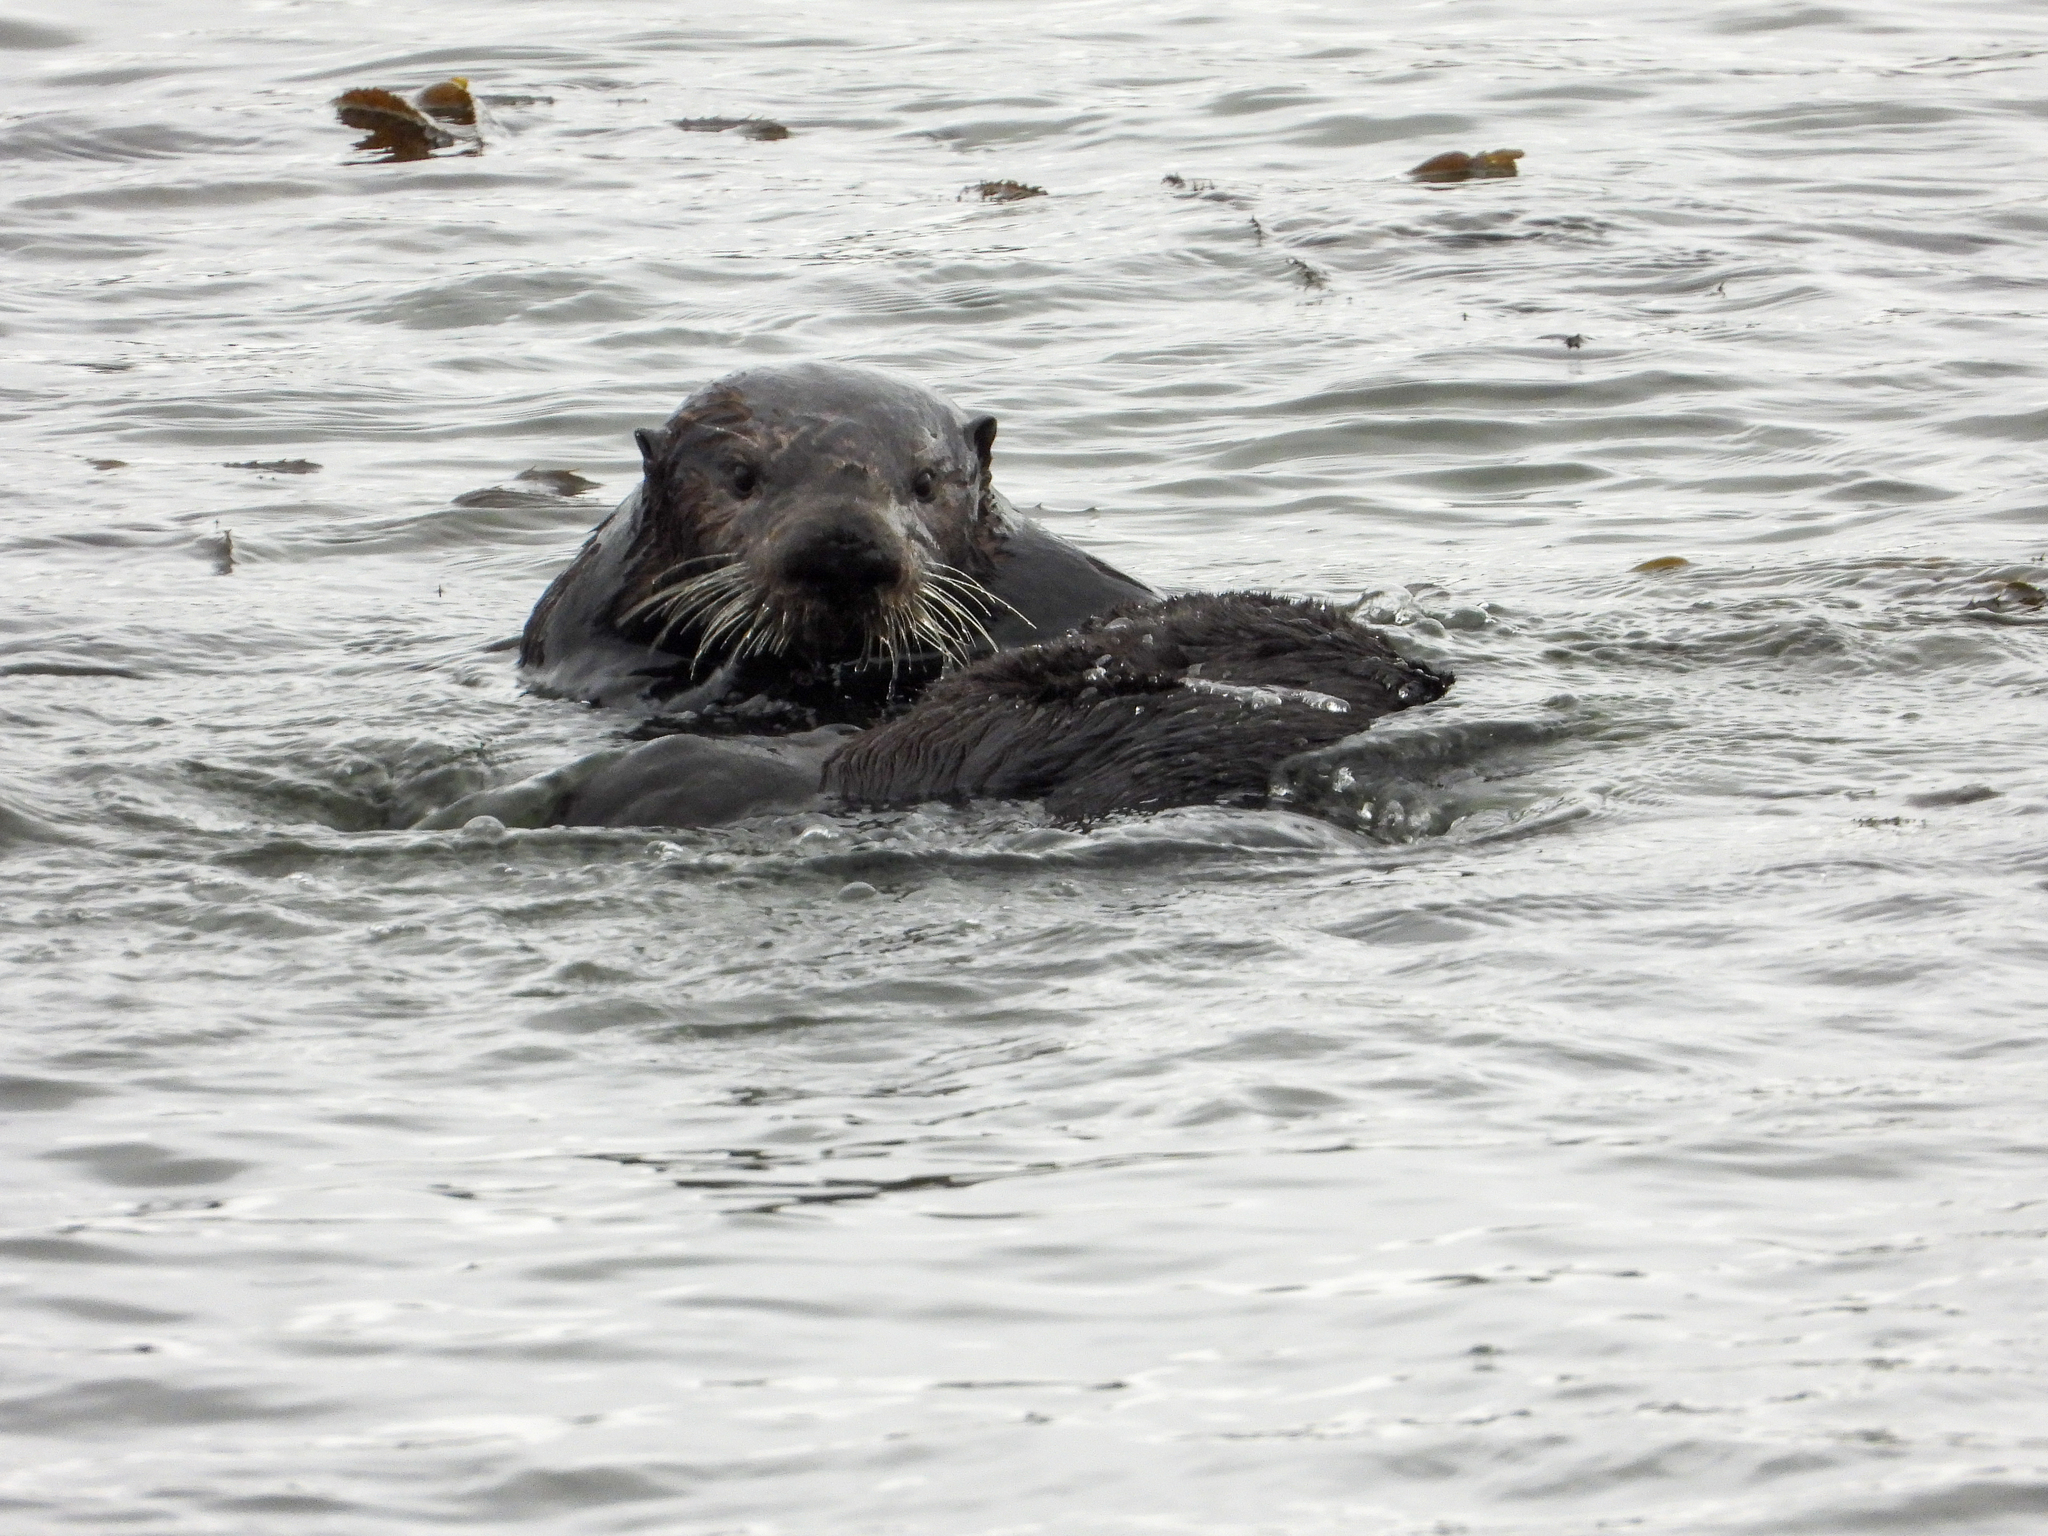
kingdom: Animalia
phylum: Chordata
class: Mammalia
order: Carnivora
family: Mustelidae
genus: Enhydra
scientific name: Enhydra lutris
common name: Sea otter
